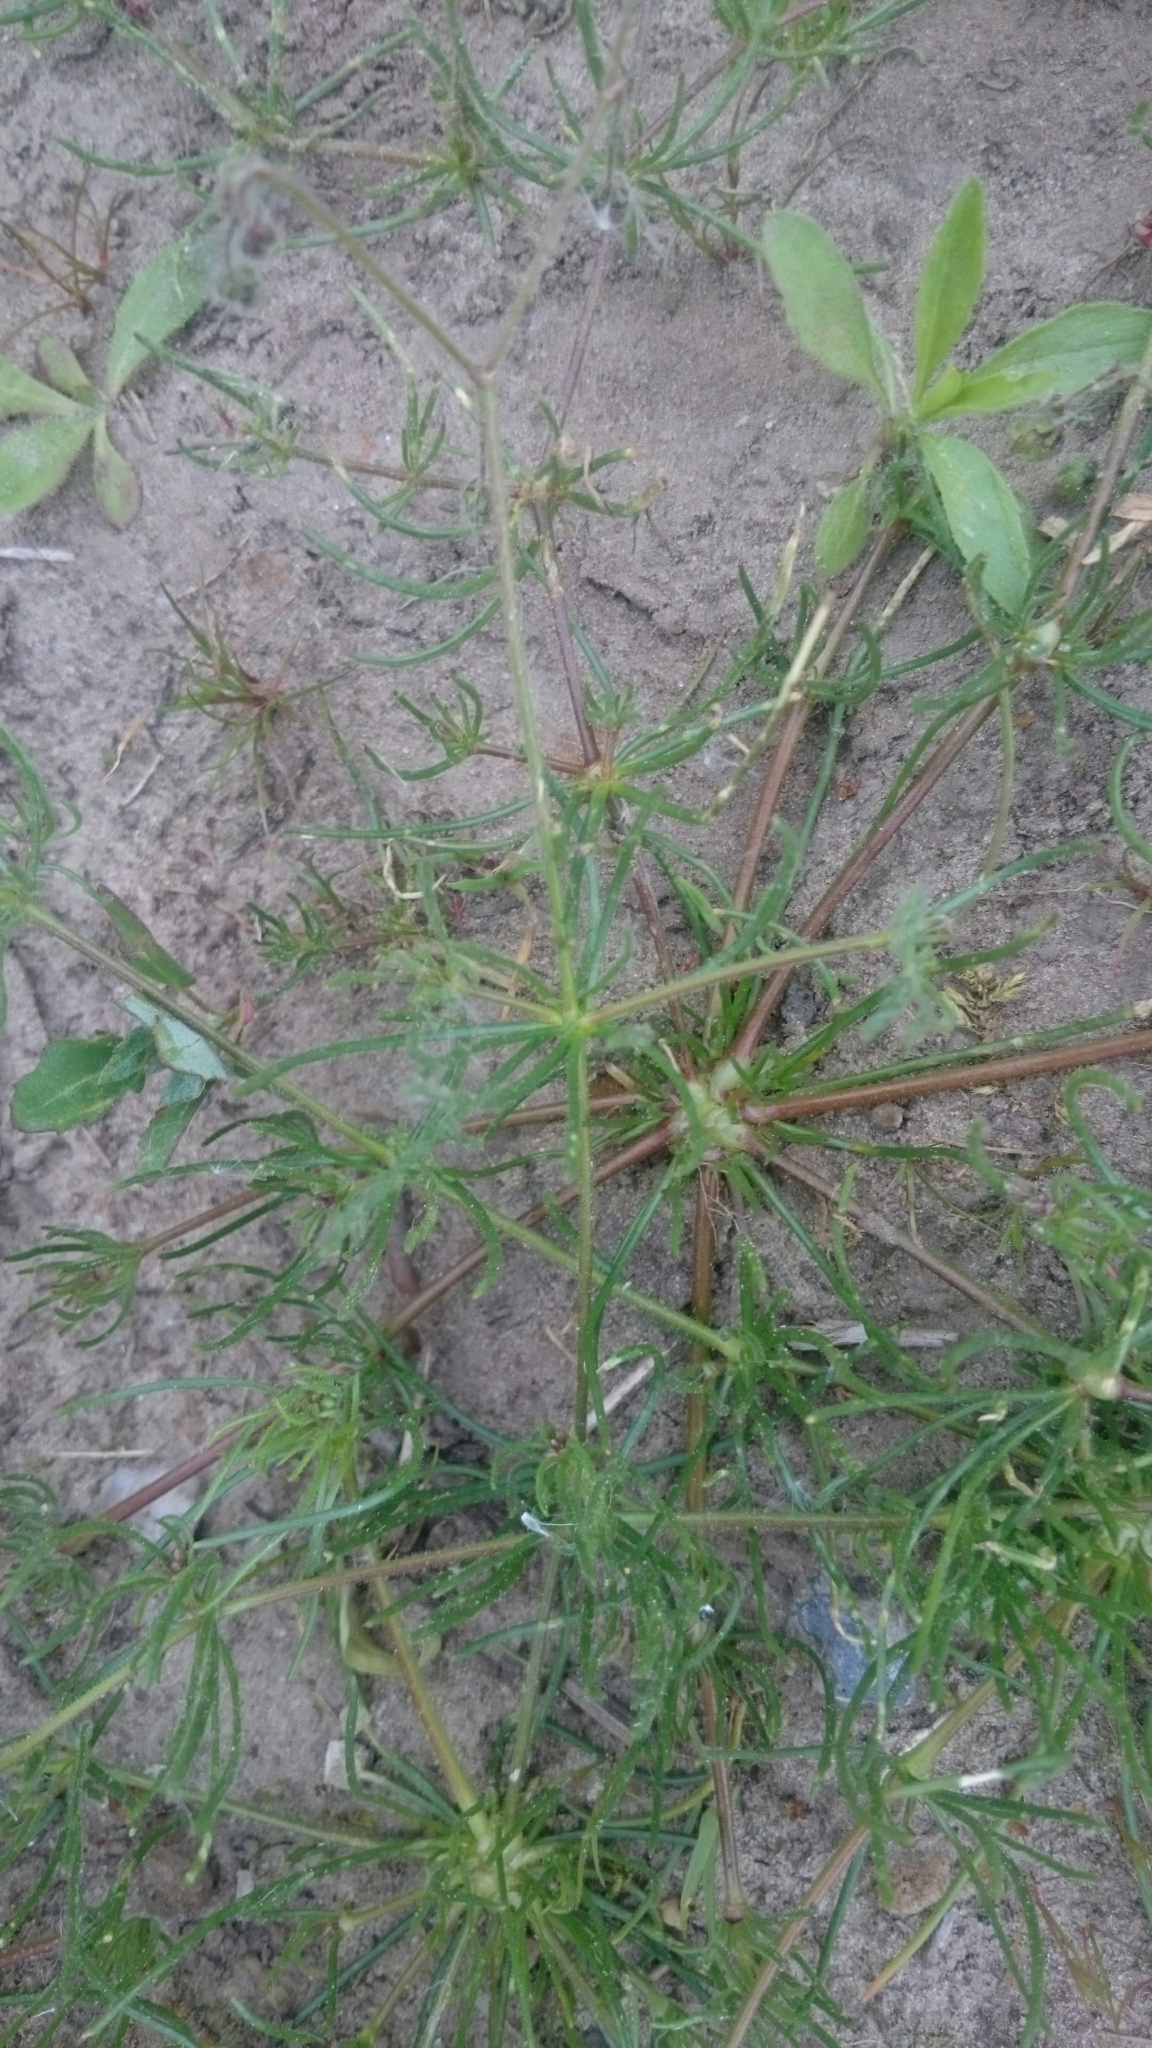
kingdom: Plantae
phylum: Tracheophyta
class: Magnoliopsida
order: Caryophyllales
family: Caryophyllaceae
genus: Spergula
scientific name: Spergula arvensis
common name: Corn spurrey
